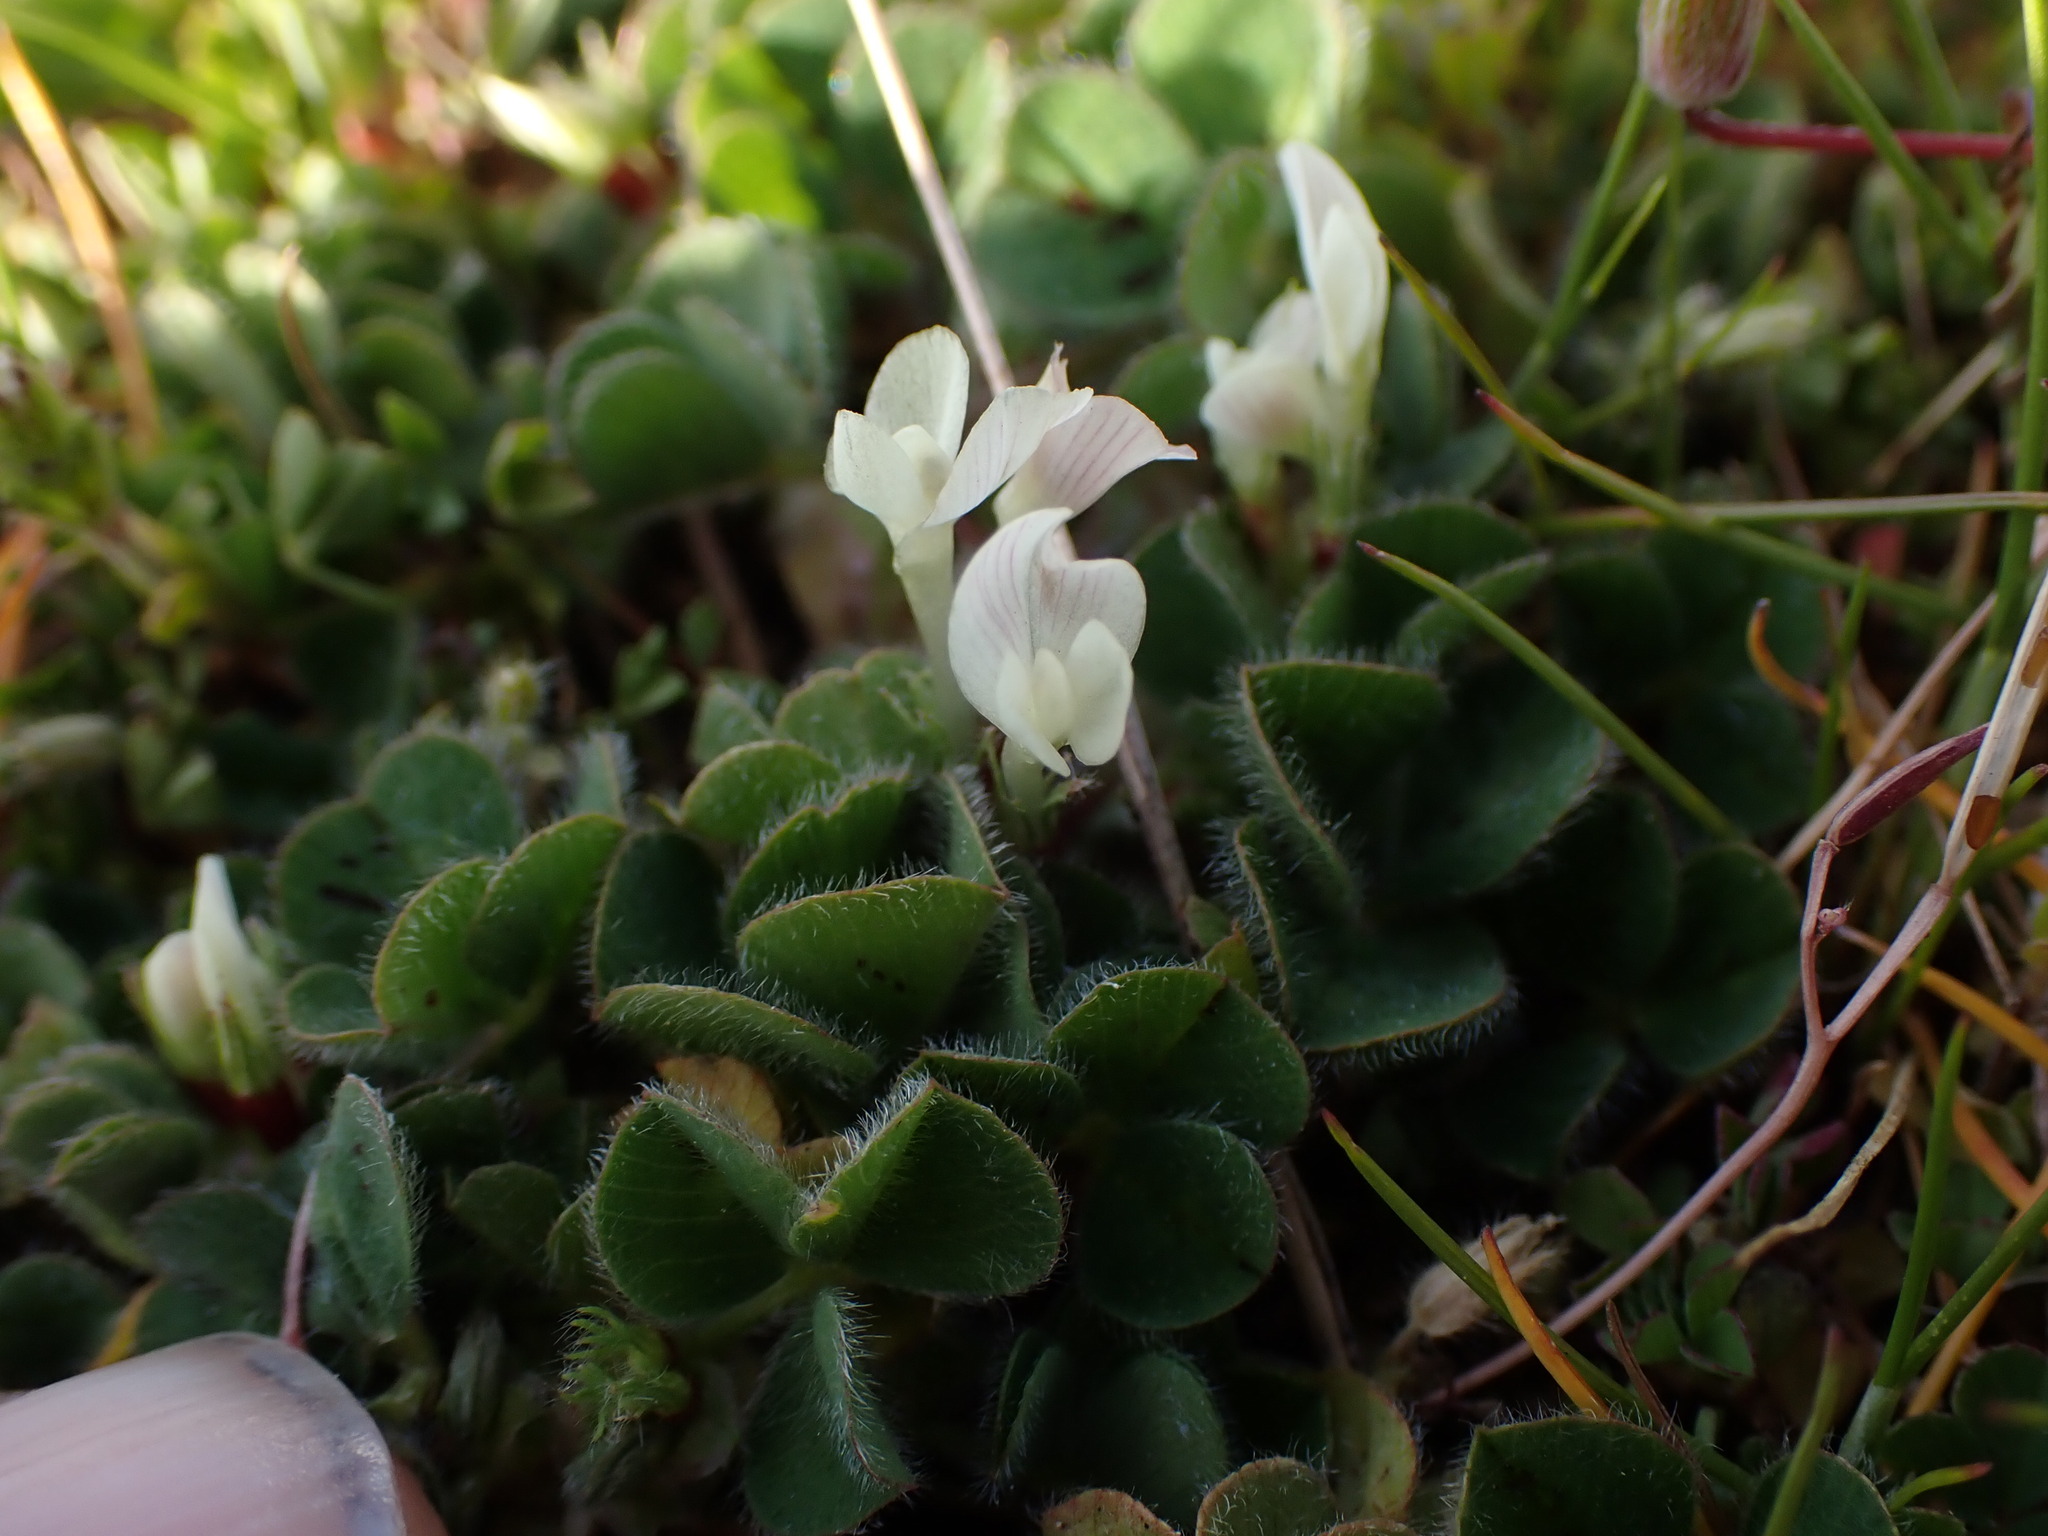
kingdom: Plantae
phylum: Tracheophyta
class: Magnoliopsida
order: Fabales
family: Fabaceae
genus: Trifolium
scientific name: Trifolium subterraneum
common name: Subterranean clover
